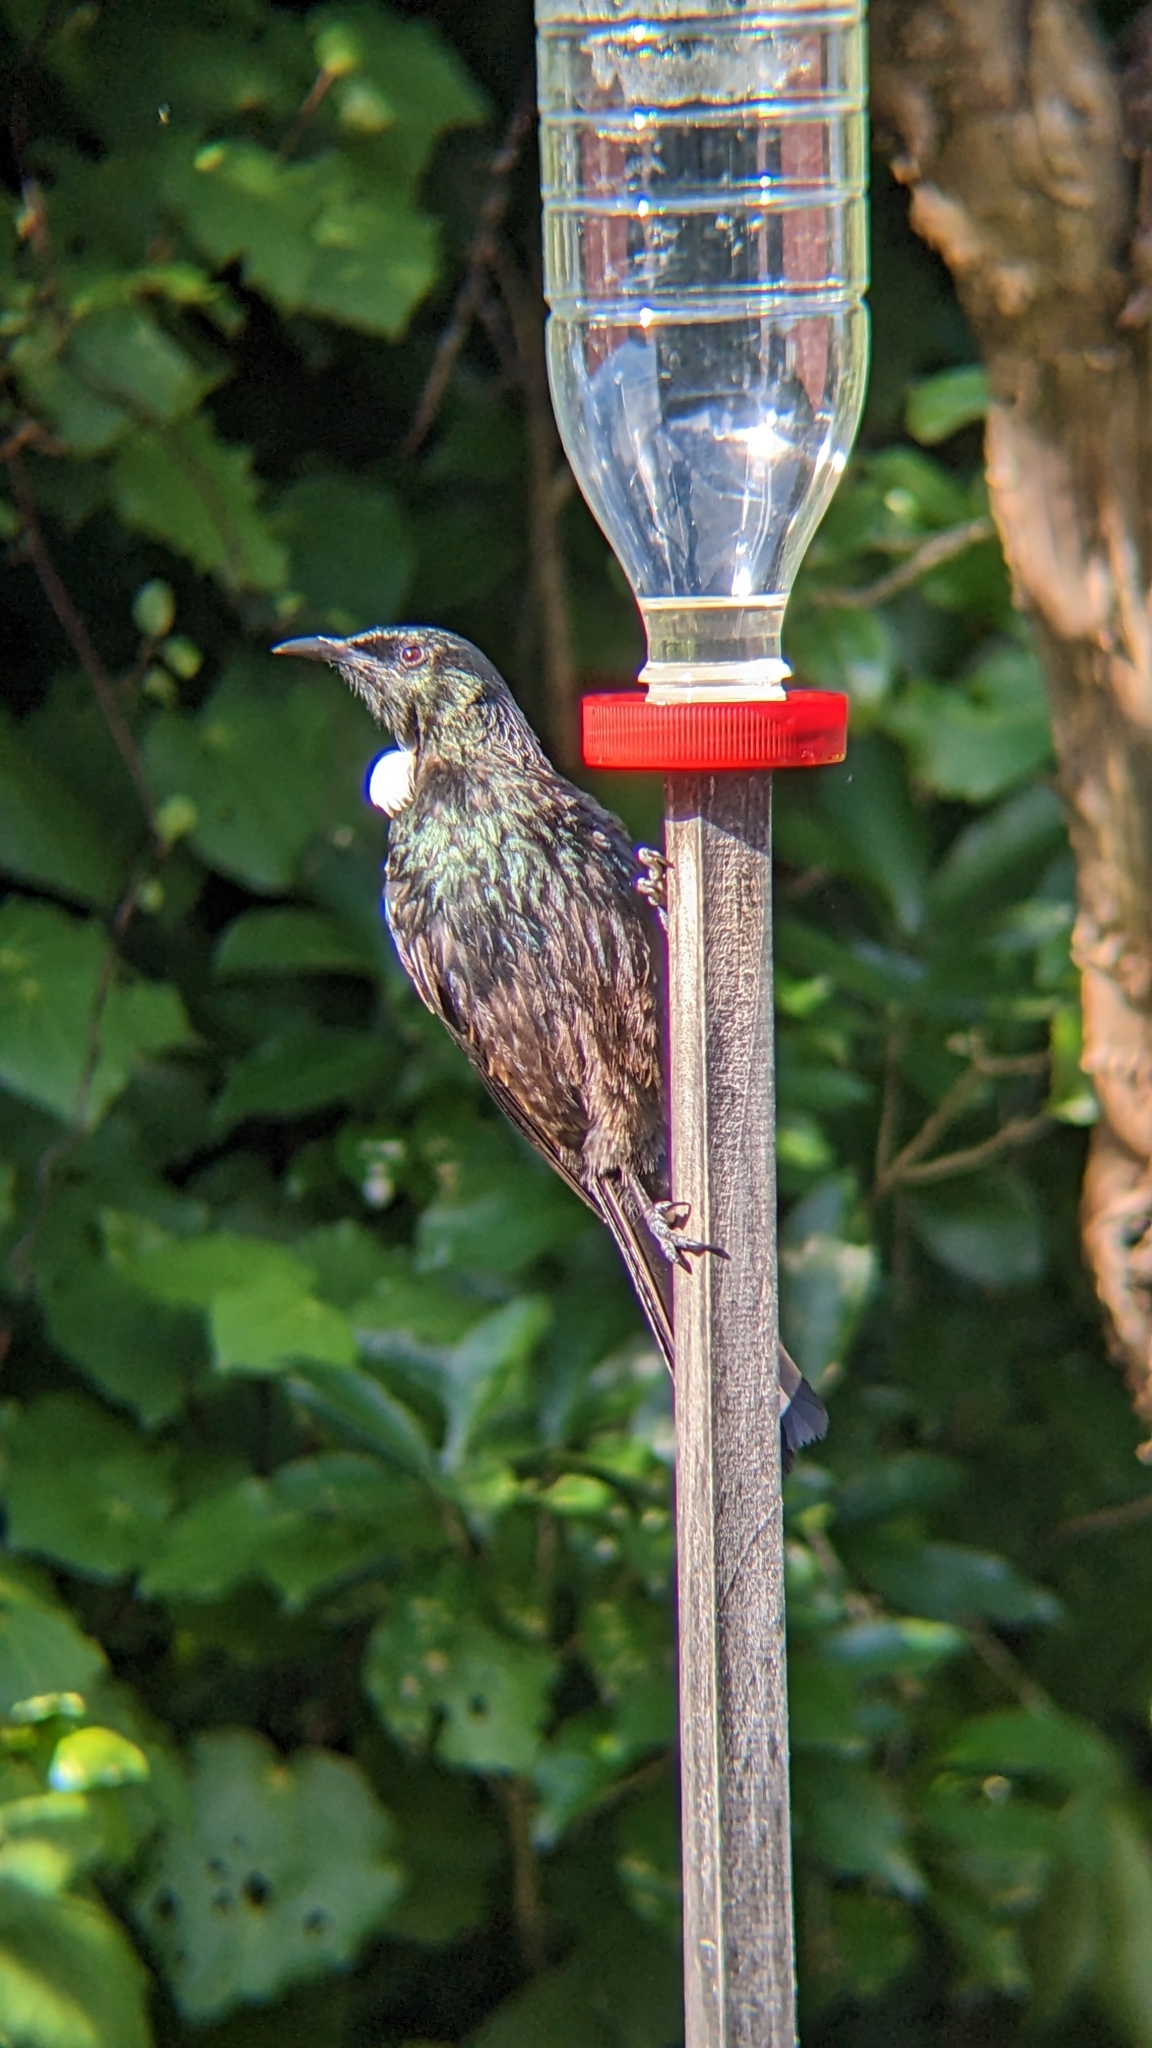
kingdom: Animalia
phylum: Chordata
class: Aves
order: Passeriformes
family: Meliphagidae
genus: Prosthemadera
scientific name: Prosthemadera novaeseelandiae
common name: Tui
